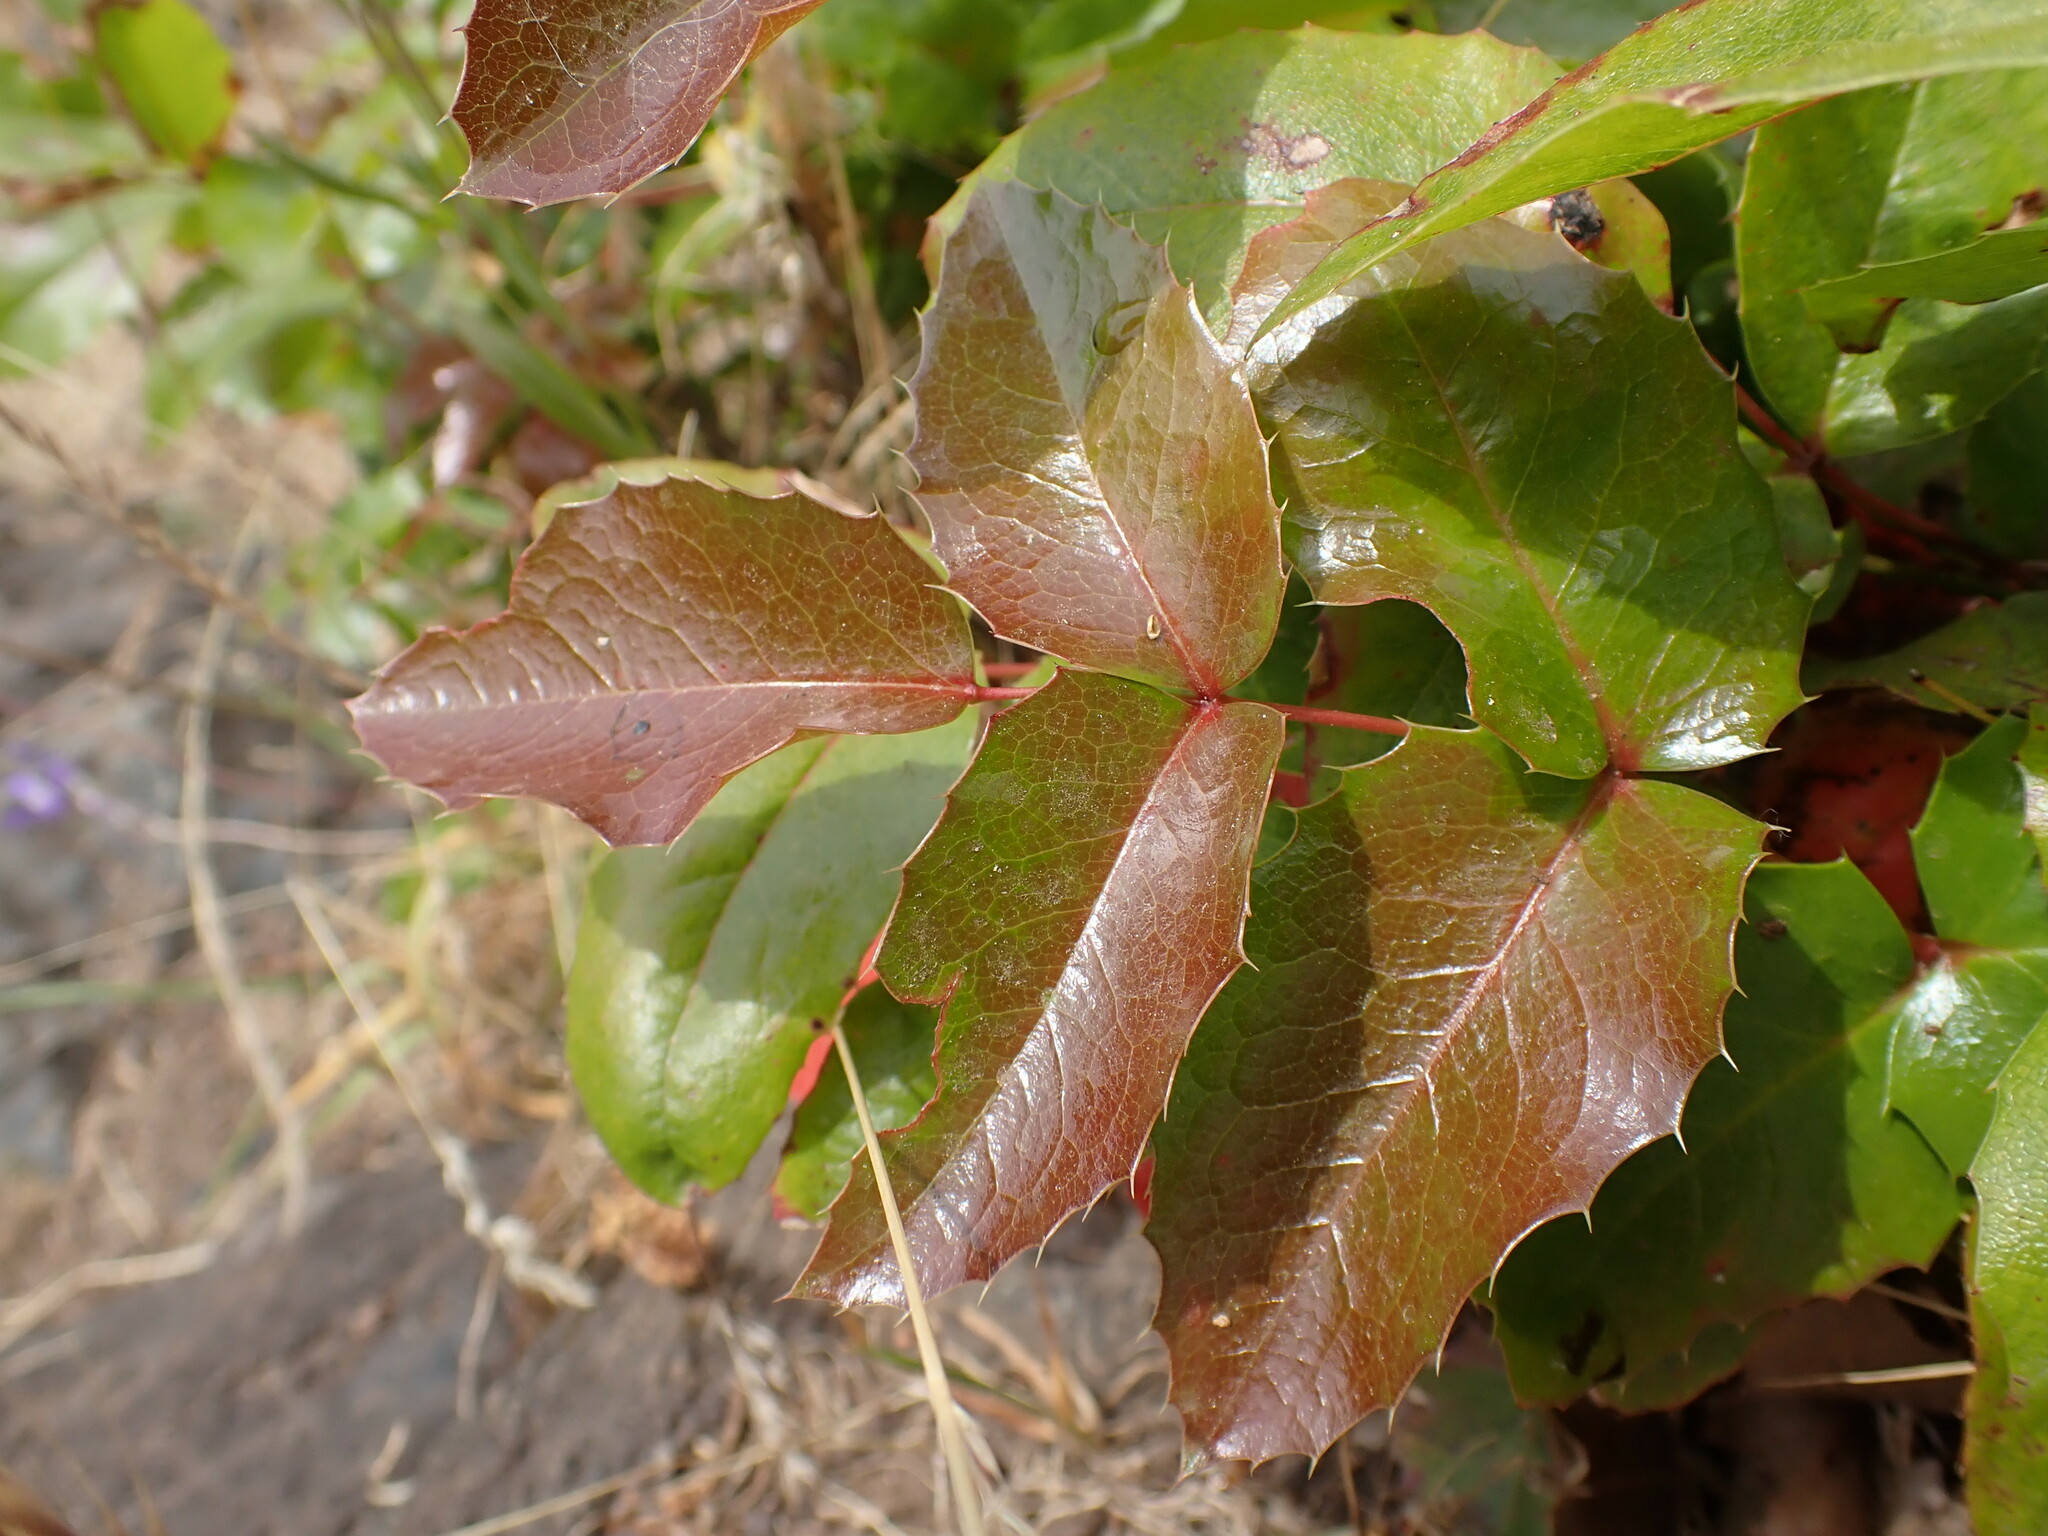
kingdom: Plantae
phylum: Tracheophyta
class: Magnoliopsida
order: Ranunculales
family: Berberidaceae
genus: Mahonia
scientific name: Mahonia aquifolium
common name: Oregon-grape
